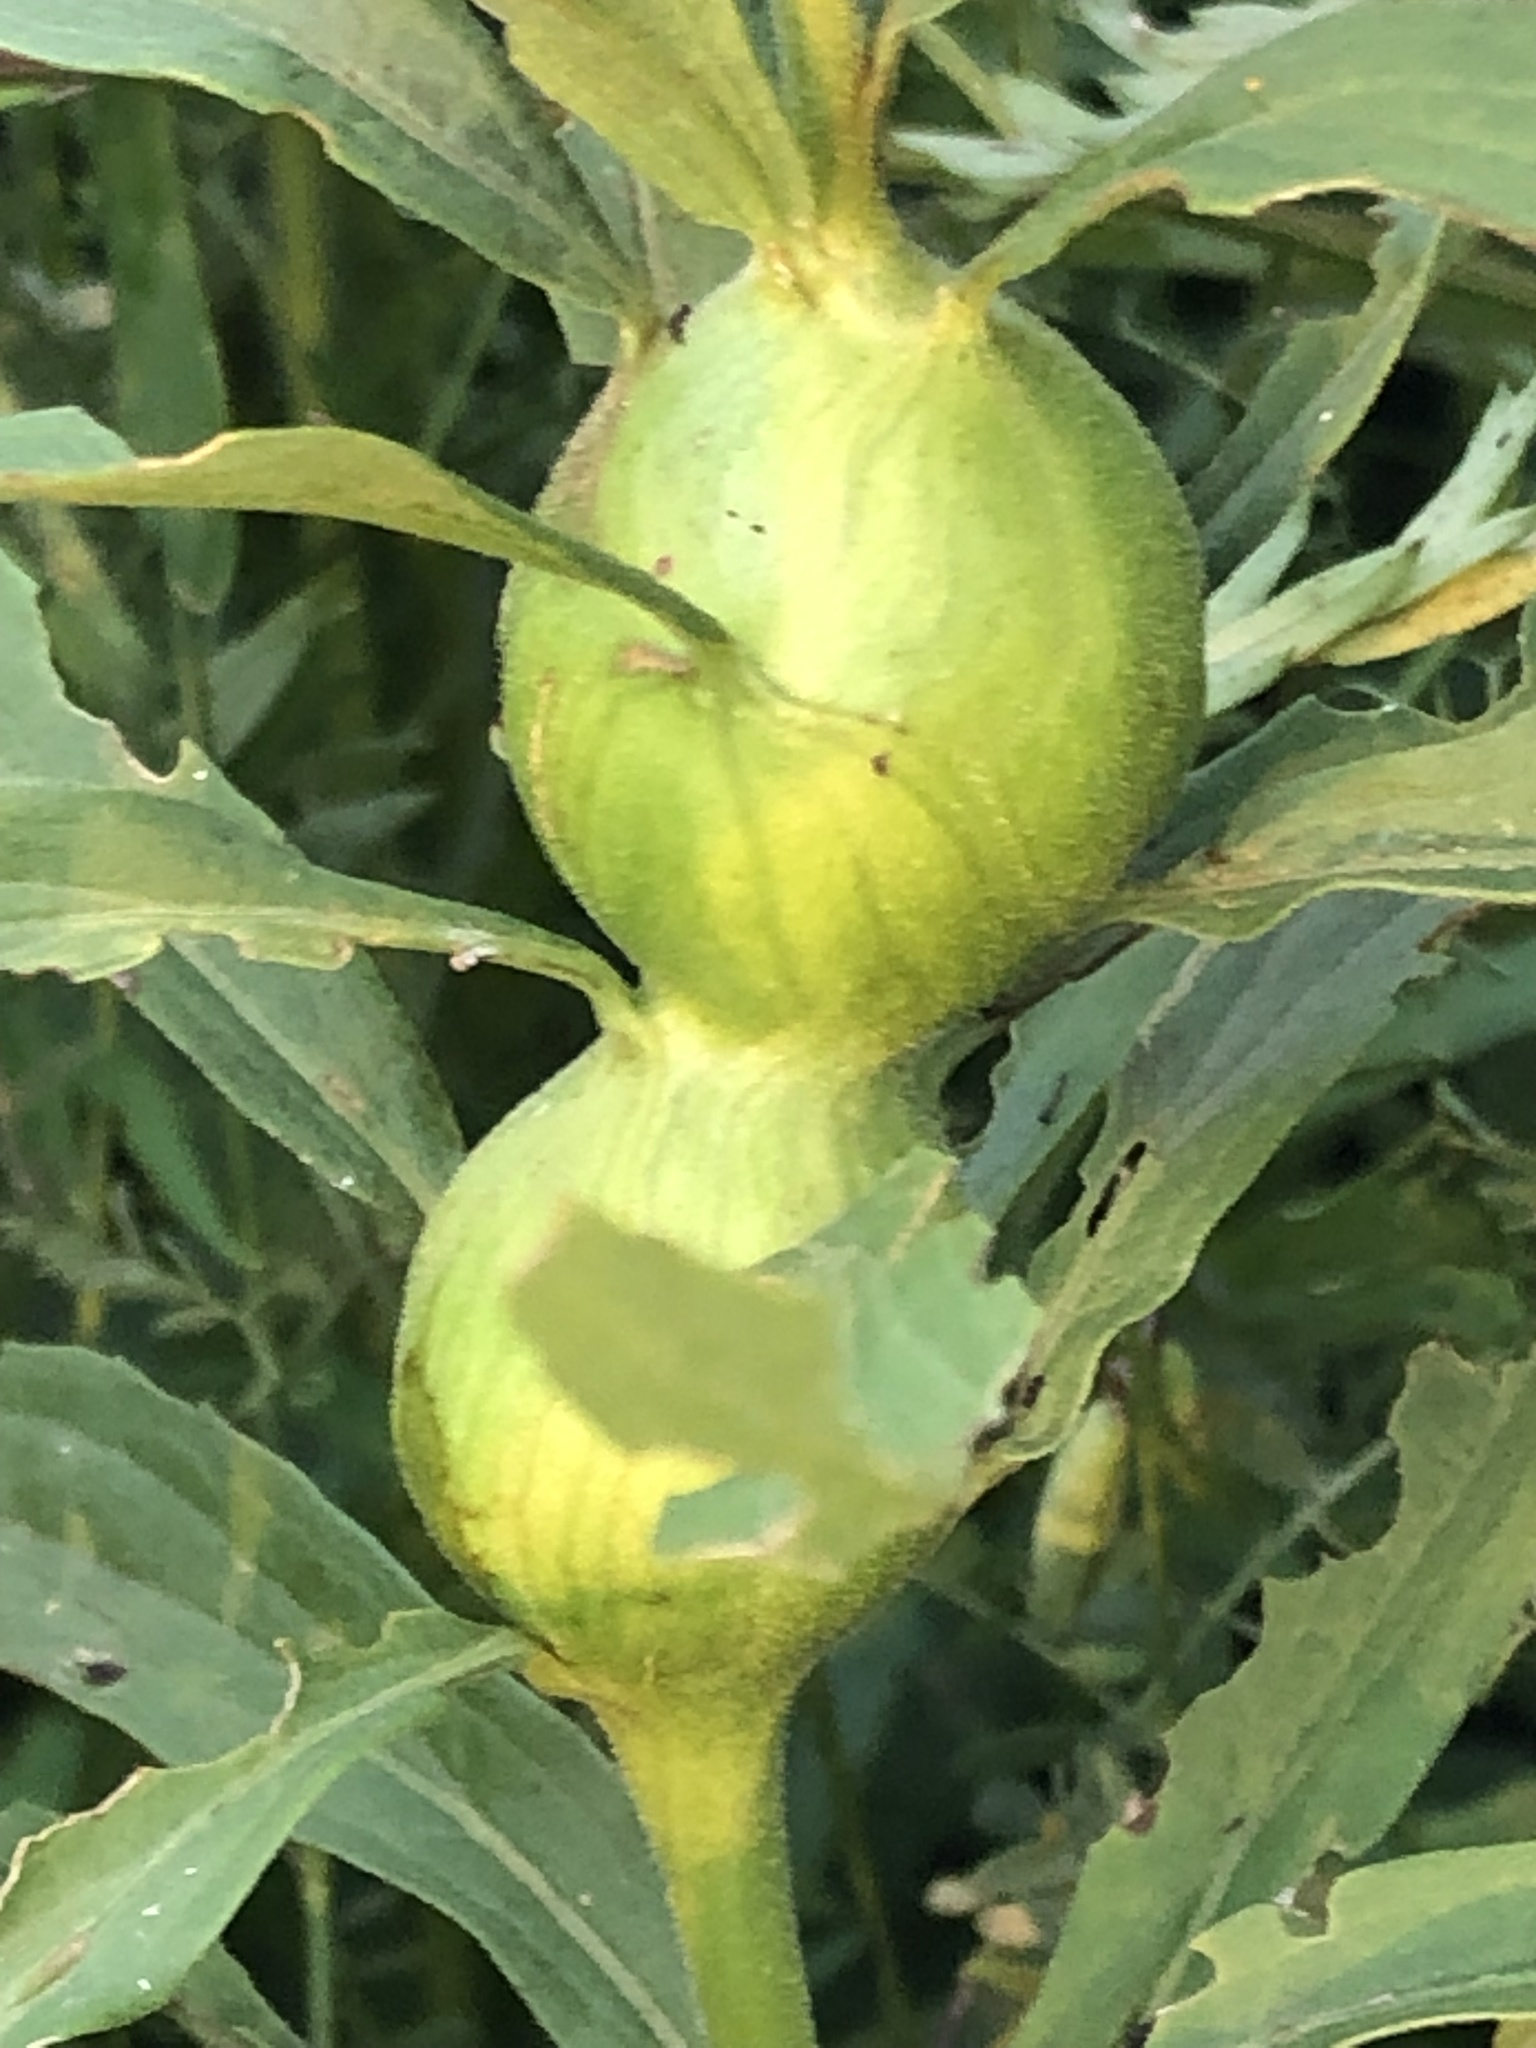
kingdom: Animalia
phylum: Arthropoda
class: Insecta
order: Diptera
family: Tephritidae
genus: Eurosta
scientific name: Eurosta solidaginis
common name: Goldenrod gall fly
